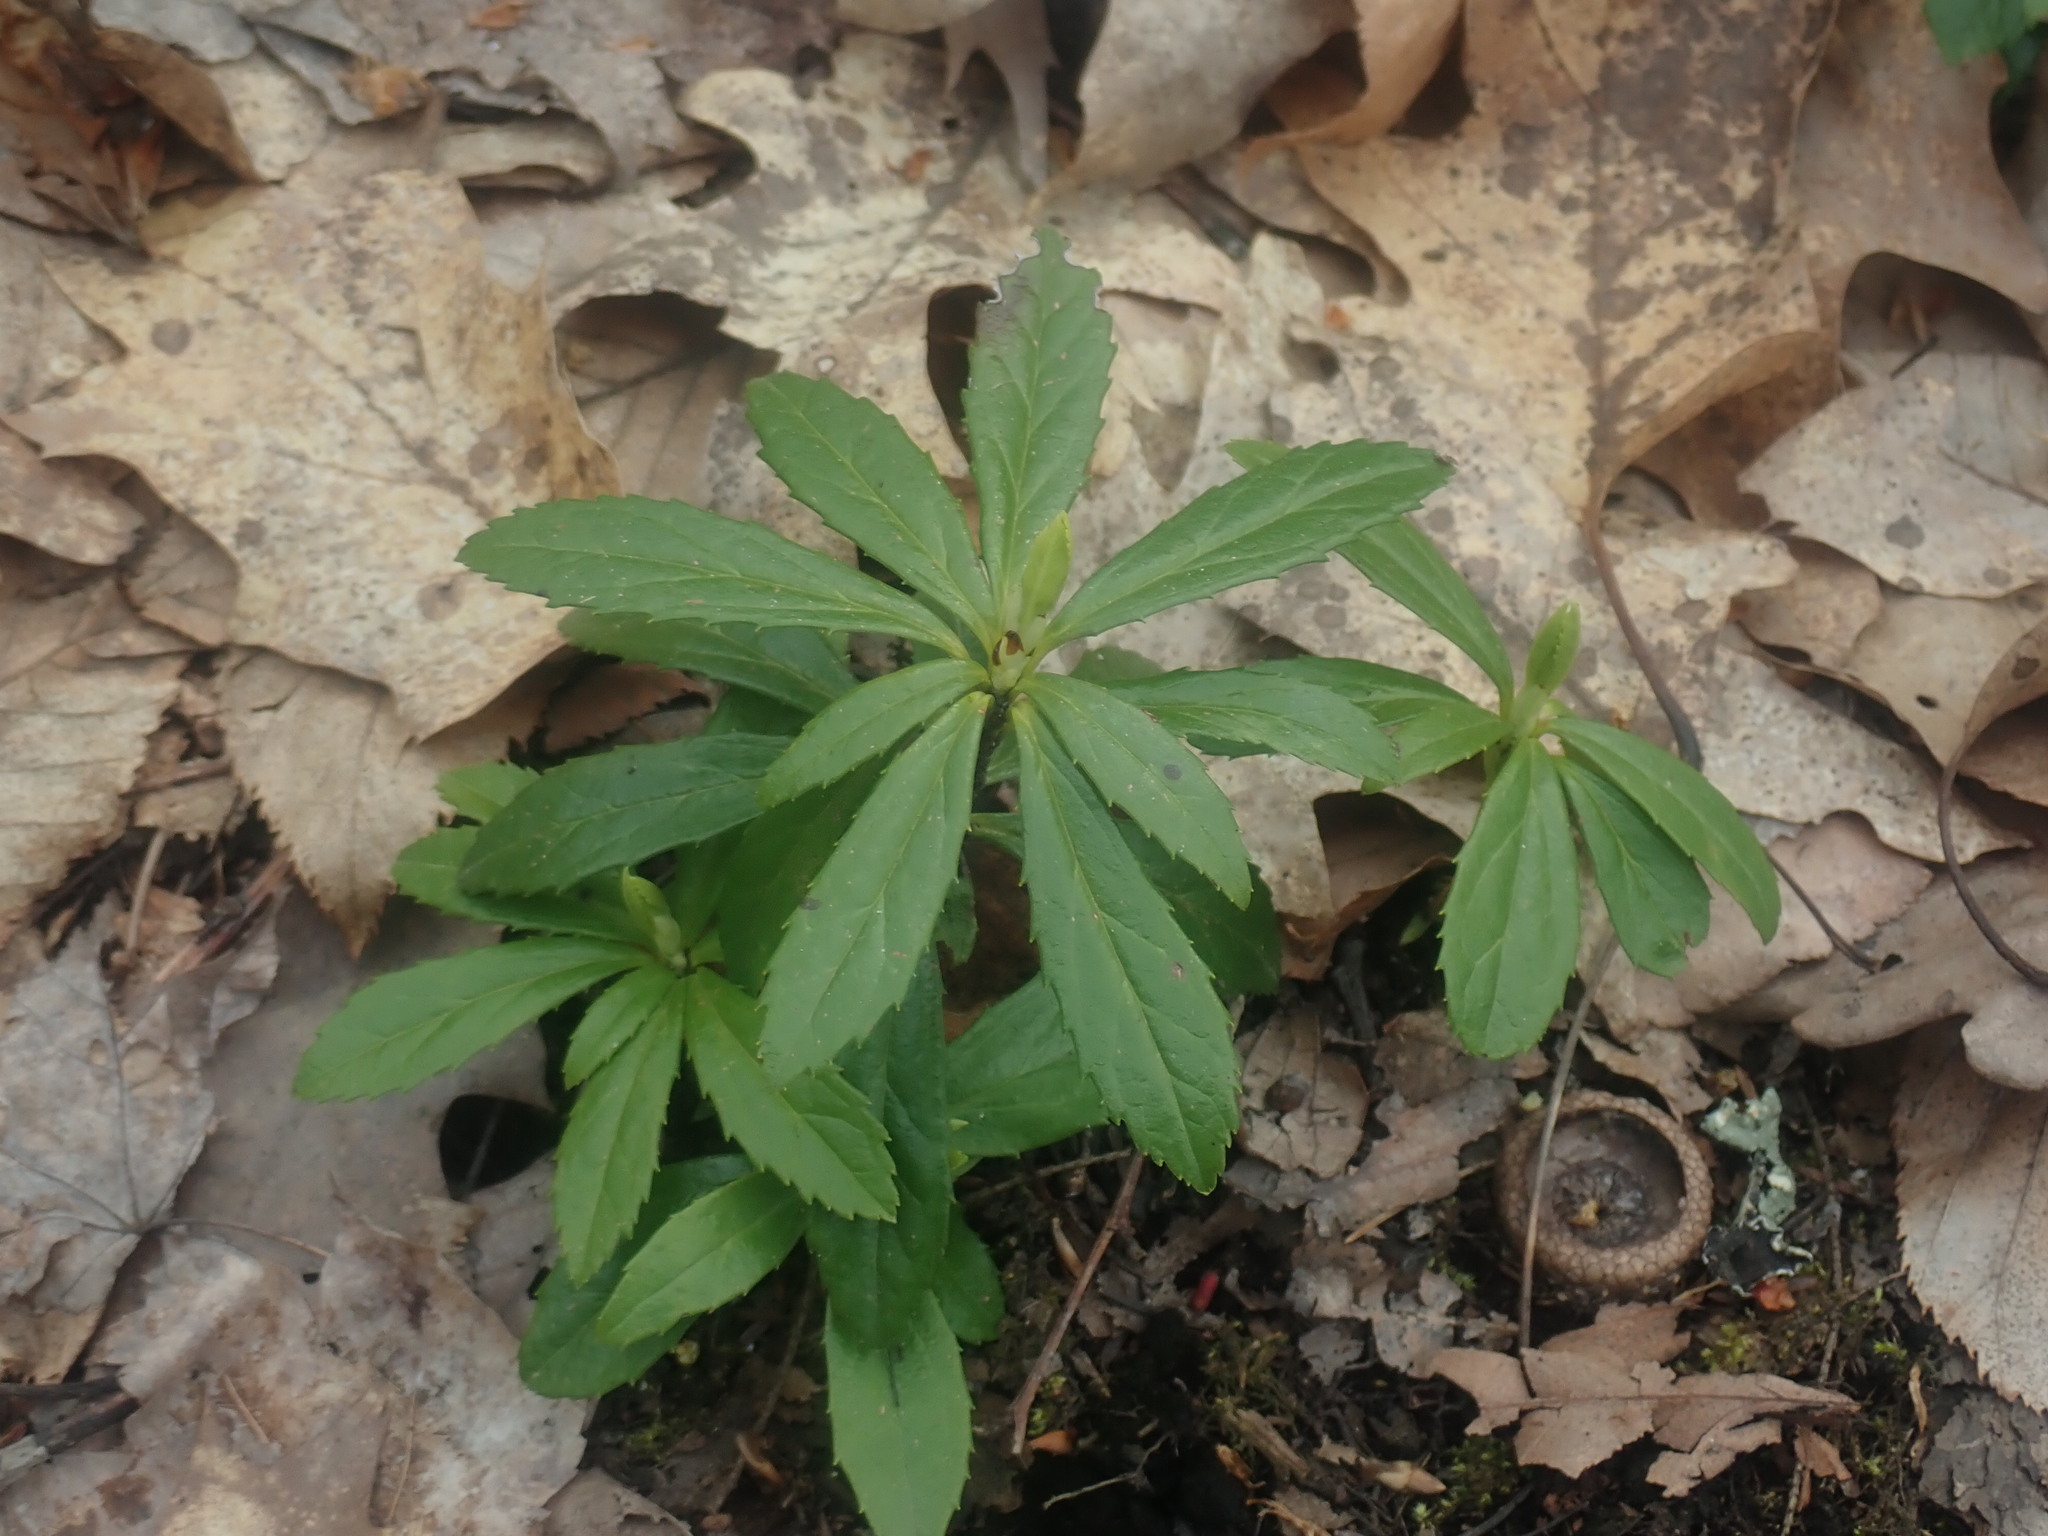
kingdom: Plantae
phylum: Tracheophyta
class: Magnoliopsida
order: Ericales
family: Ericaceae
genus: Chimaphila
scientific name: Chimaphila umbellata
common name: Pipsissewa
